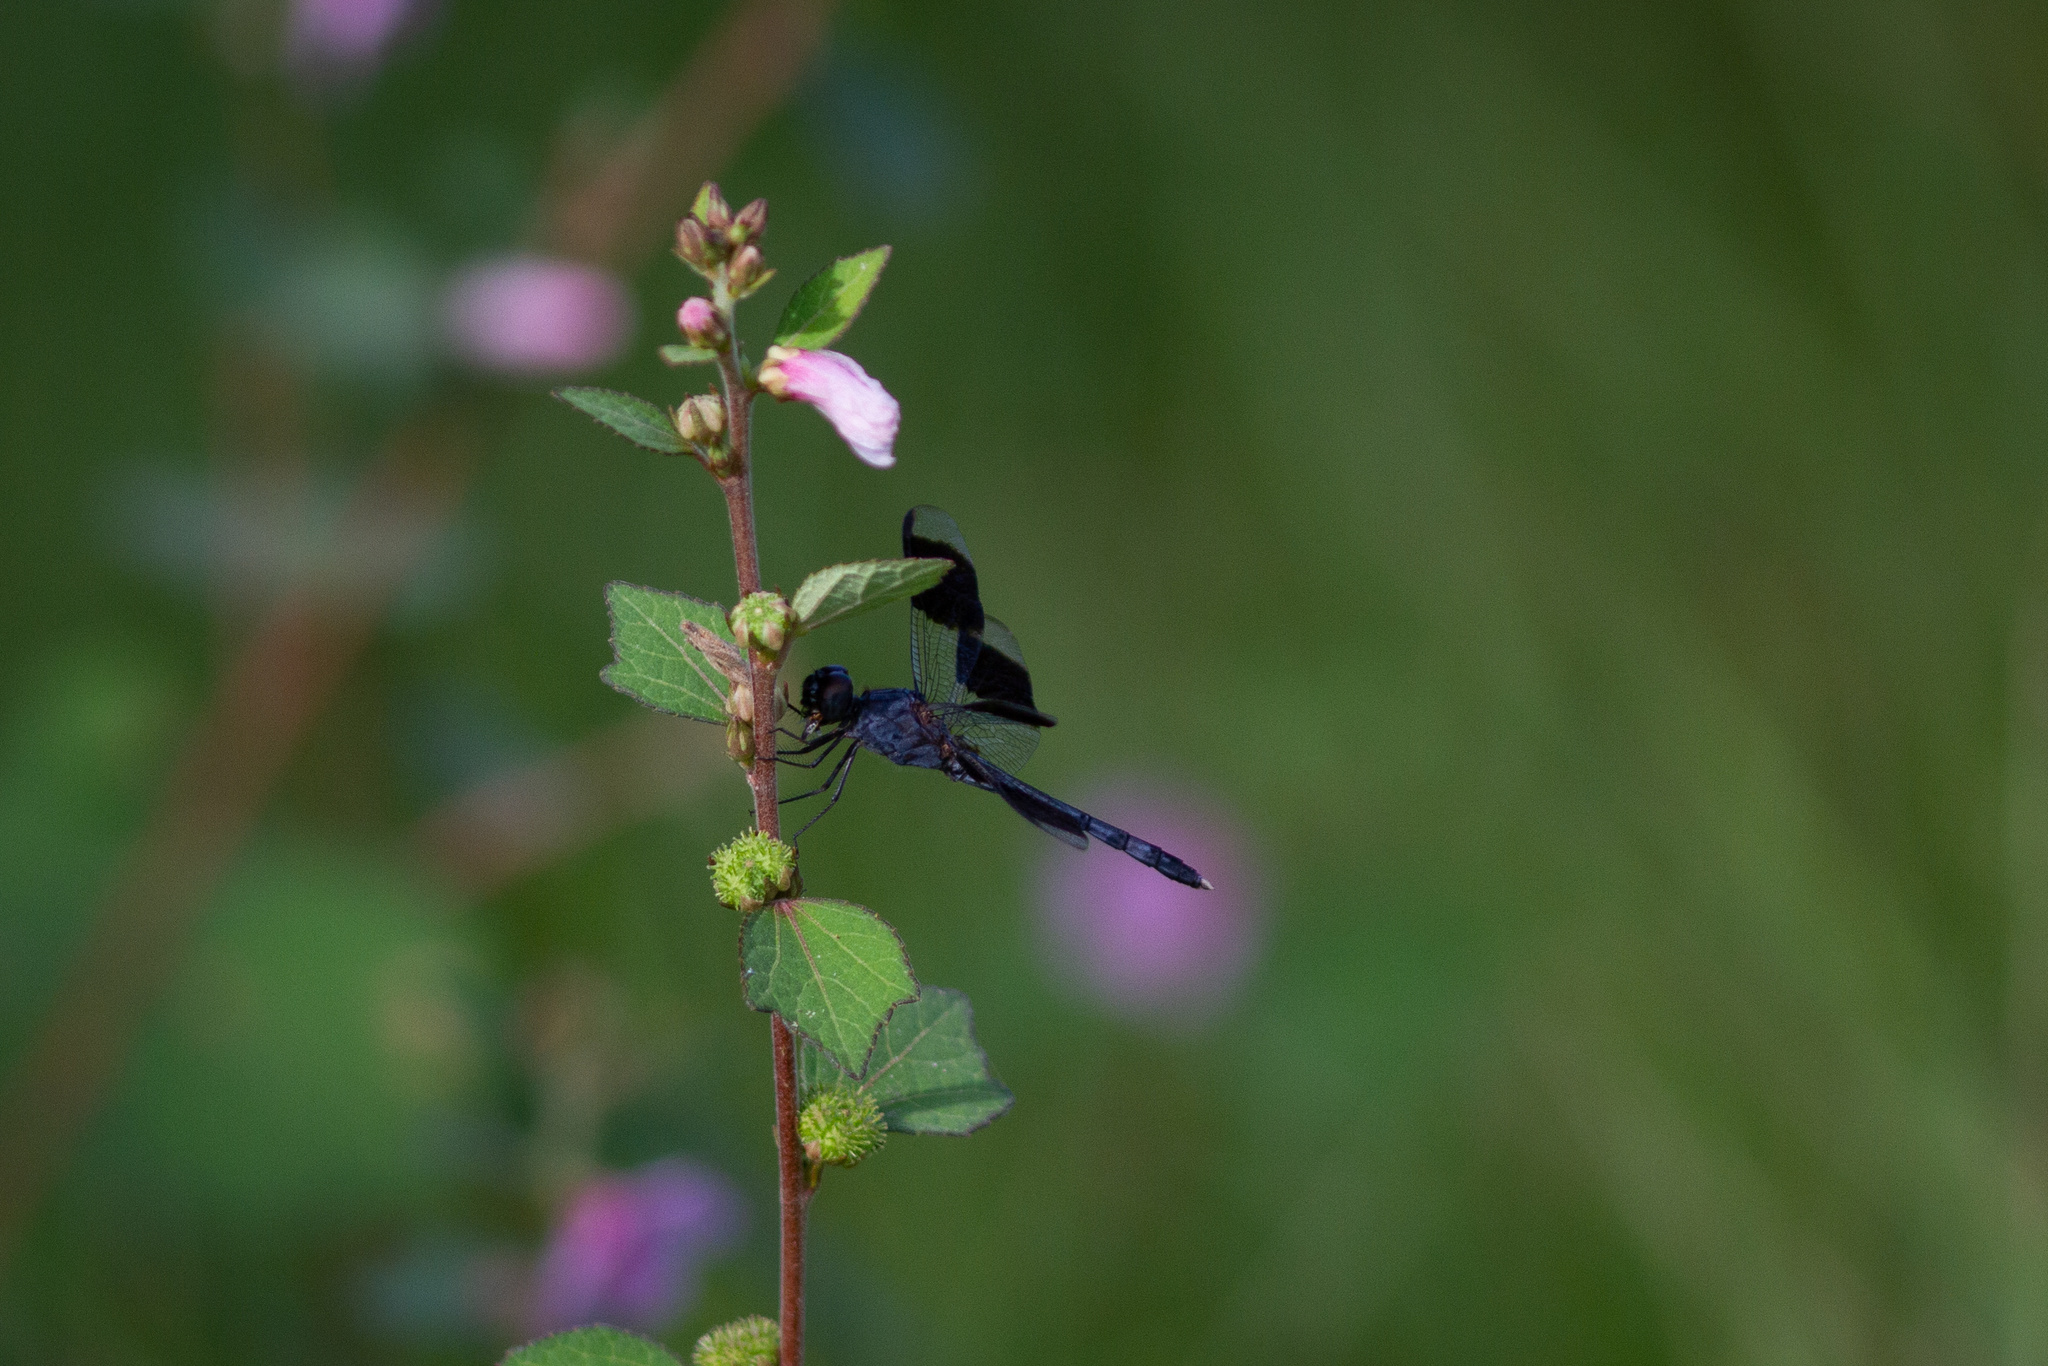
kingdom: Animalia
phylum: Arthropoda
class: Insecta
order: Odonata
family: Libellulidae
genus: Erythrodiplax
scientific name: Erythrodiplax umbrata
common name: Band-winged dragonlet
